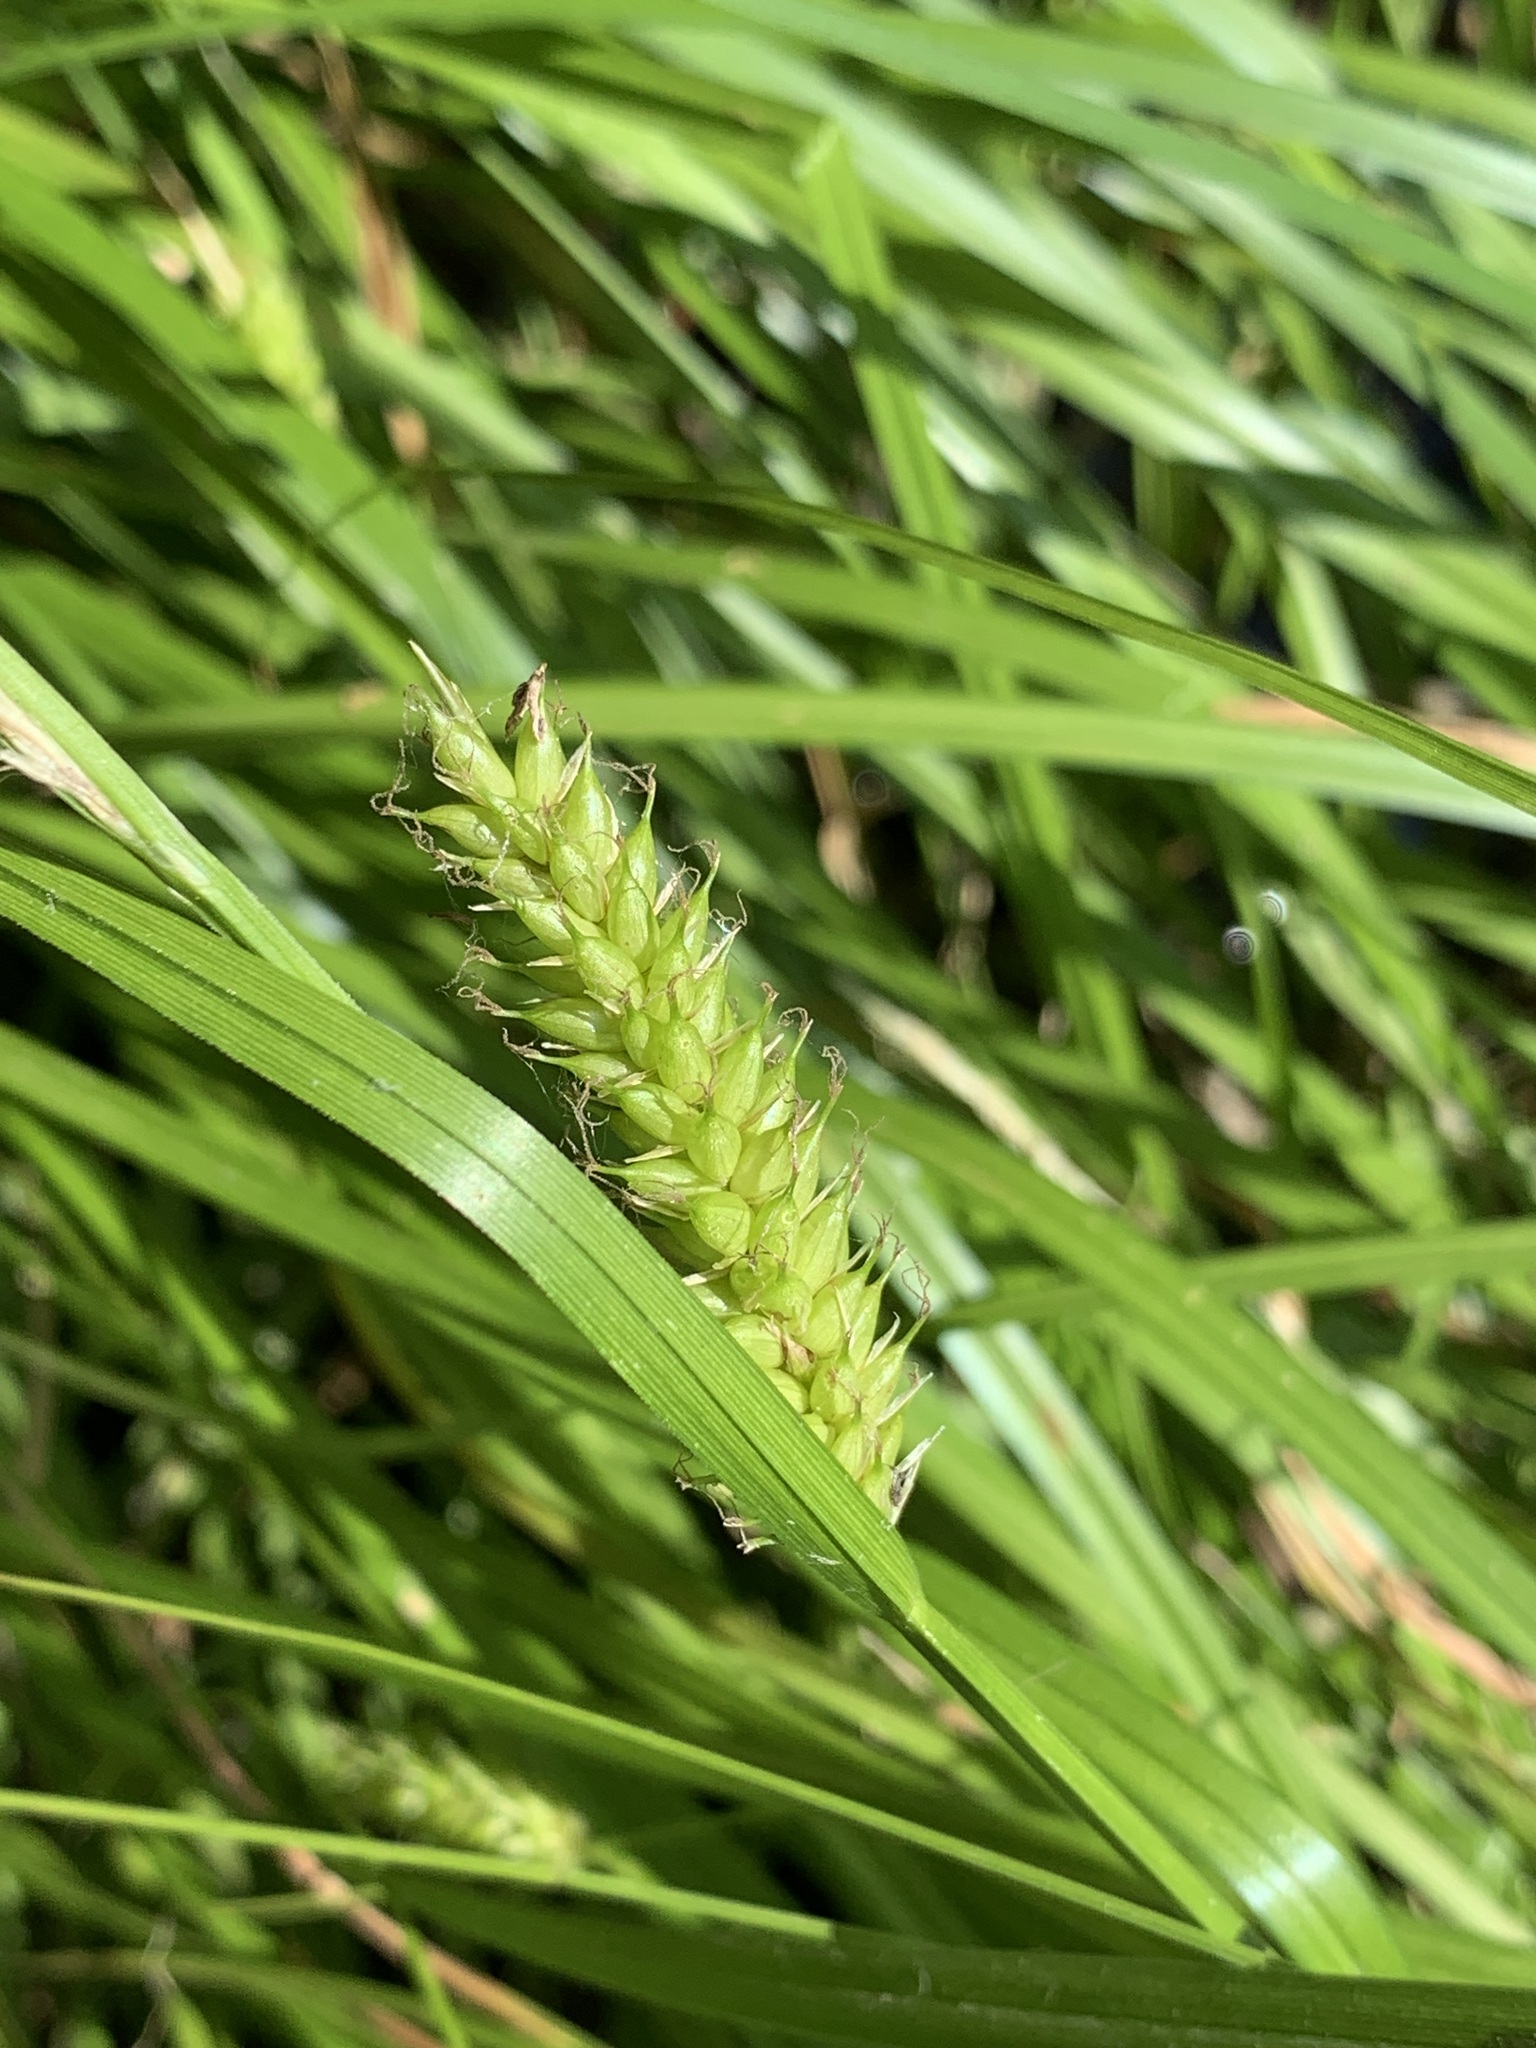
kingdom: Plantae
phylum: Tracheophyta
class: Liliopsida
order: Poales
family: Cyperaceae
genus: Carex
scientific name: Carex vesicaria
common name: Bladder-sedge
